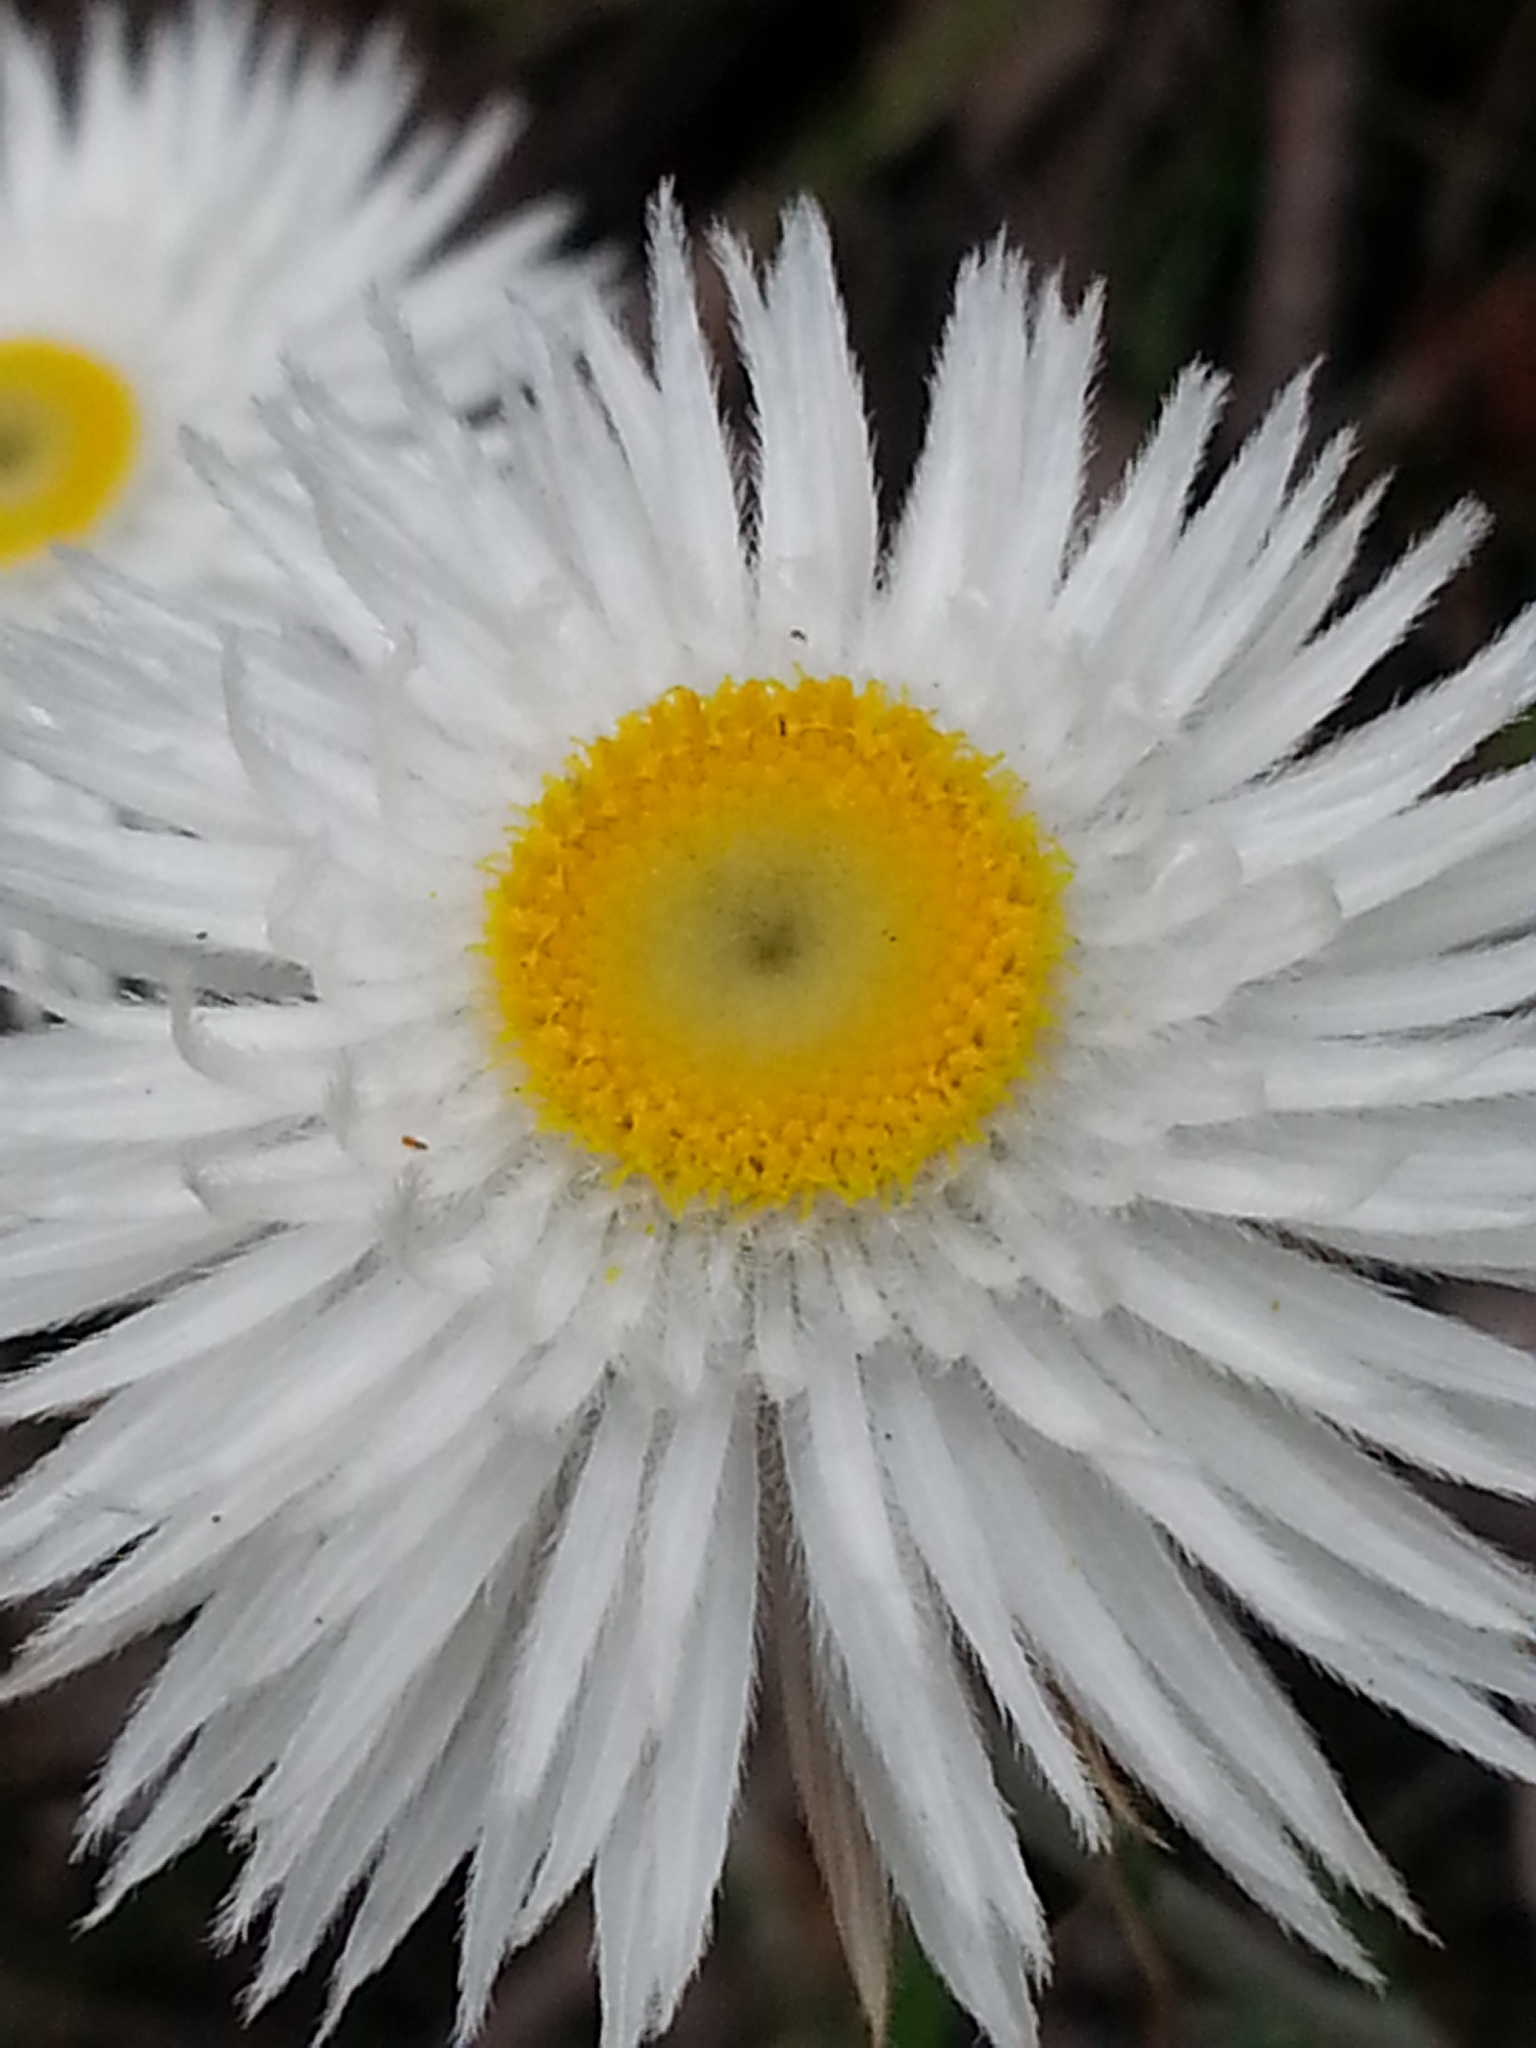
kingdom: Plantae
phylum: Tracheophyta
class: Magnoliopsida
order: Asterales
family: Asteraceae
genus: Chrysocephalum
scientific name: Chrysocephalum baxteri
